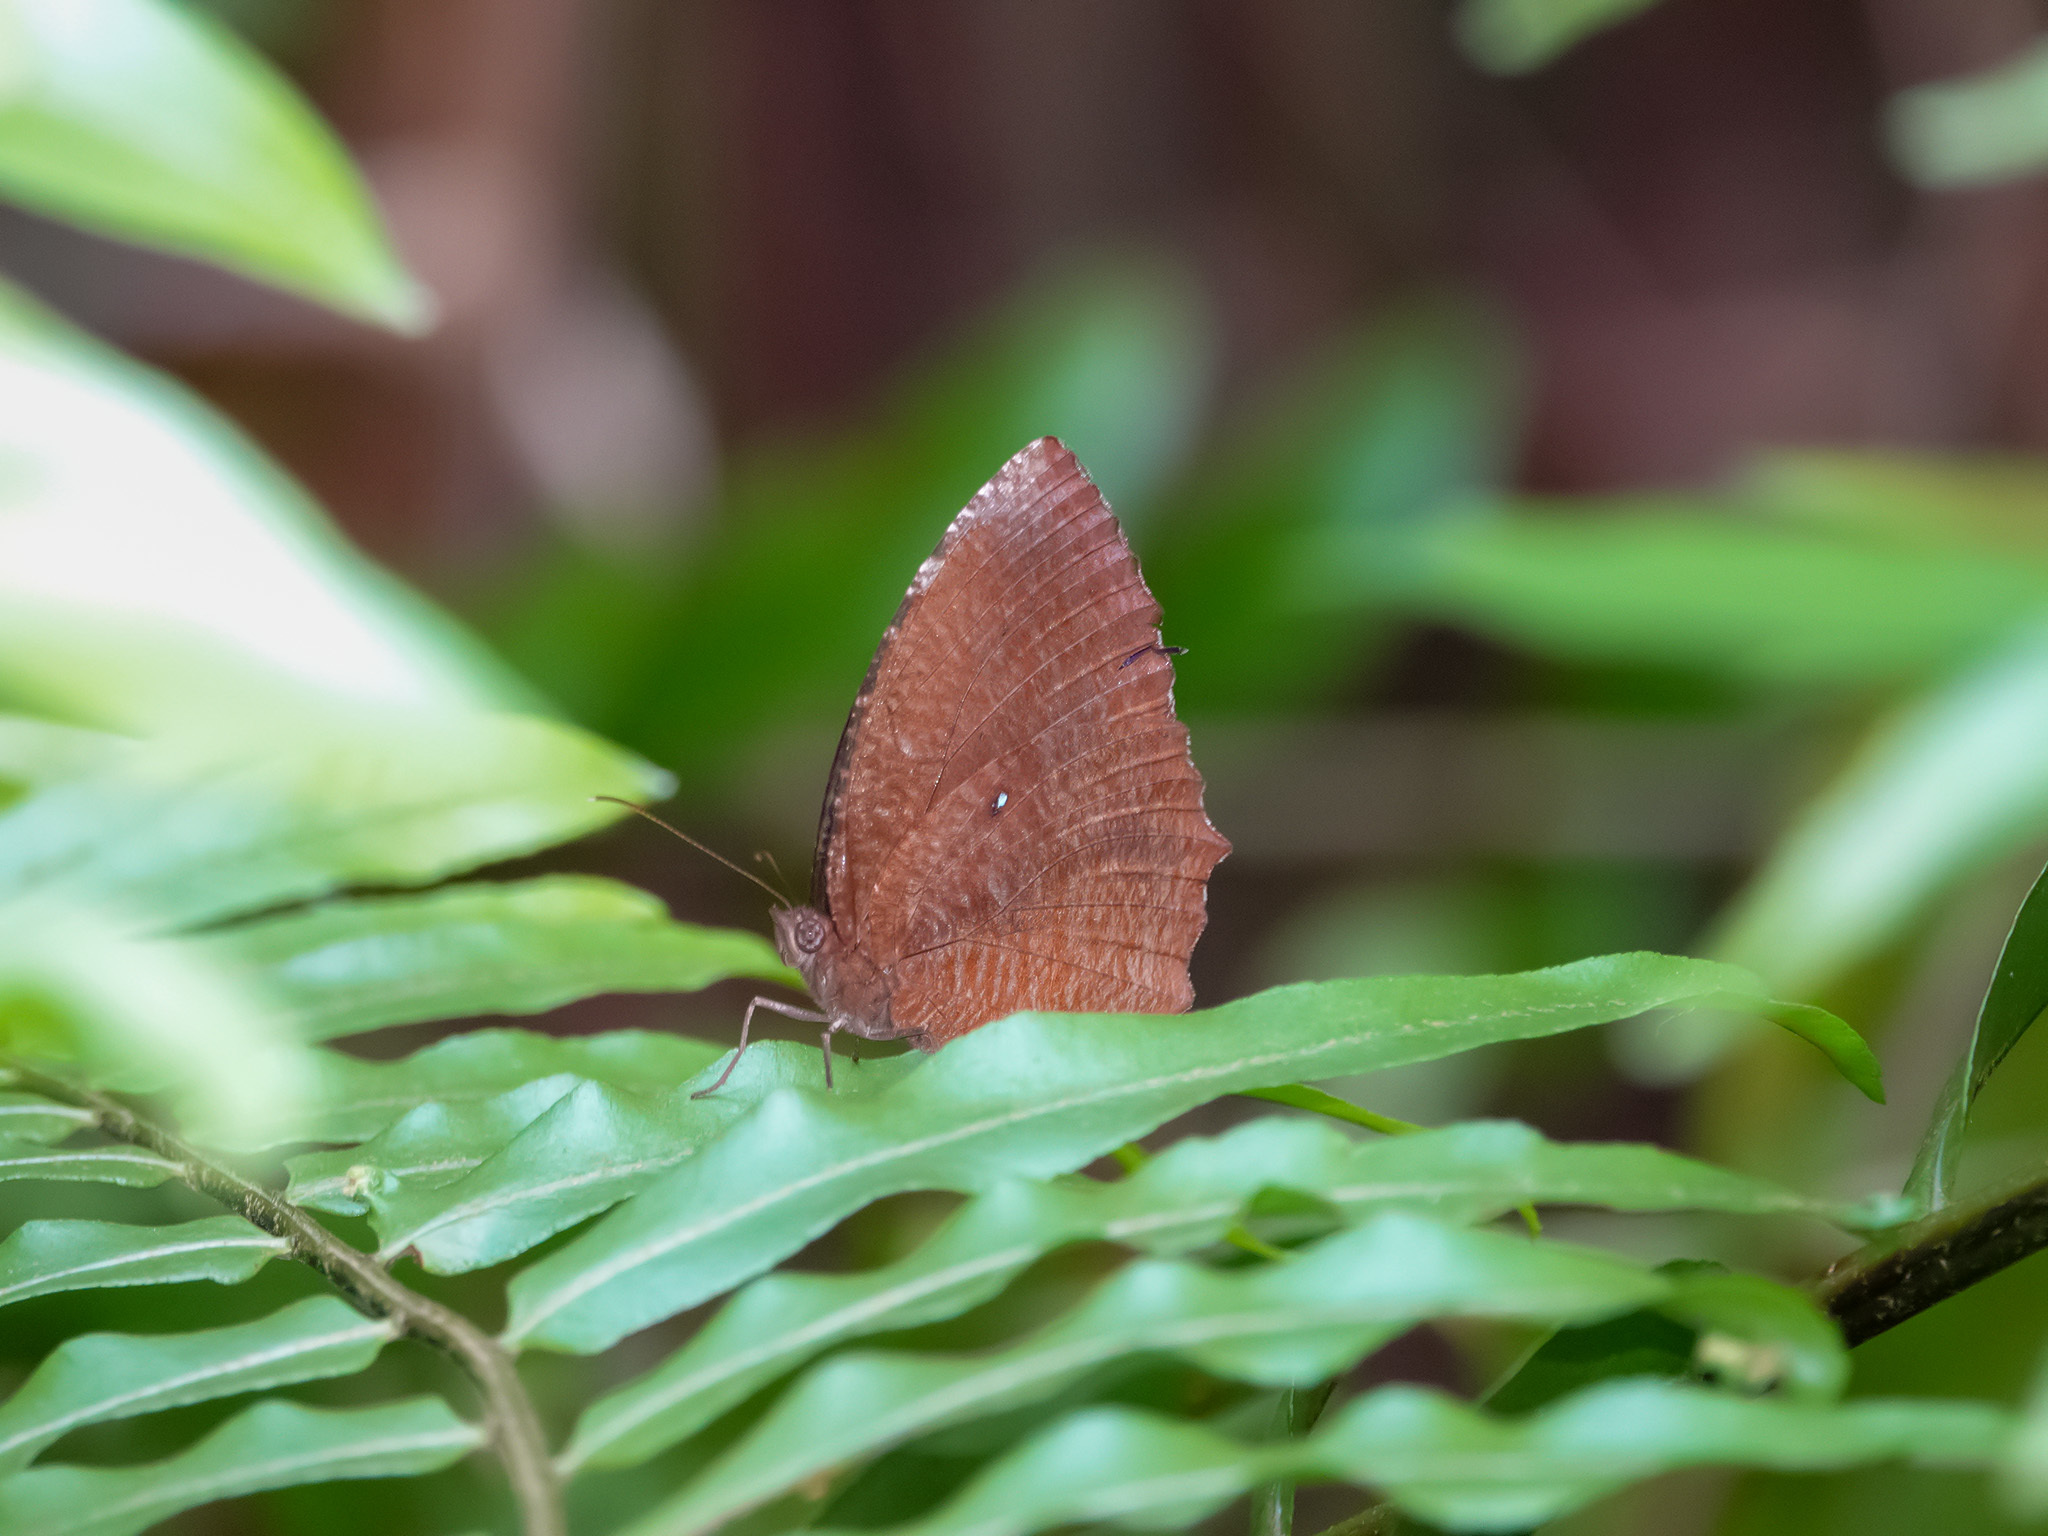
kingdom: Animalia
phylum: Arthropoda
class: Insecta
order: Lepidoptera
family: Nymphalidae
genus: Elymnias
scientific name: Elymnias hypermnestra
